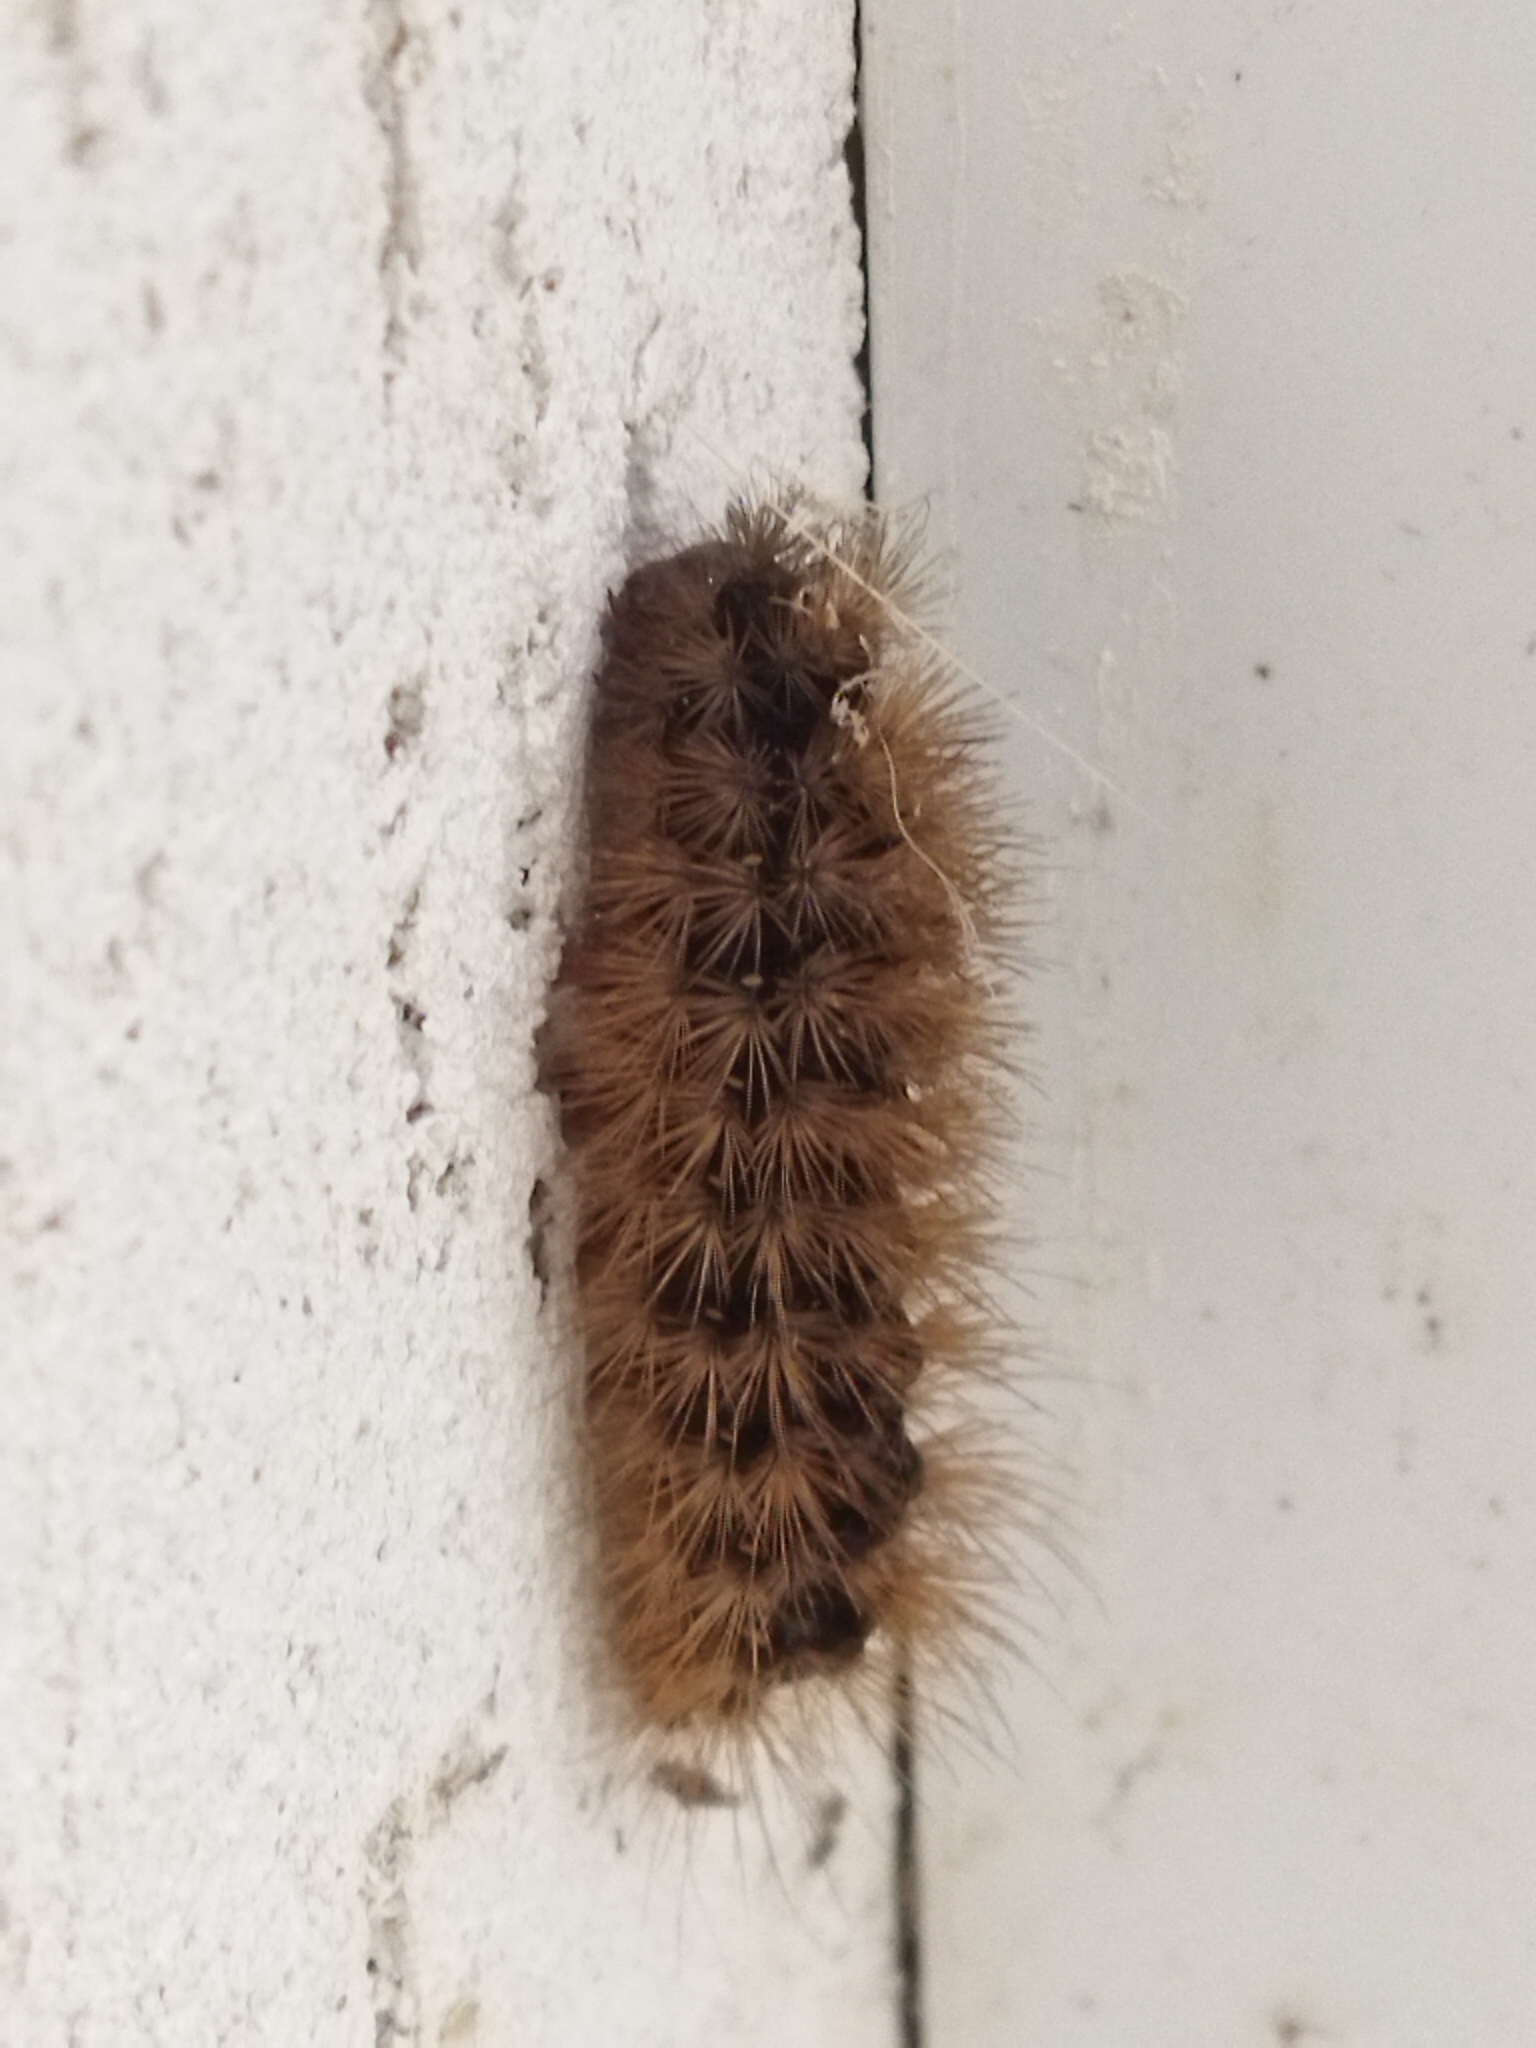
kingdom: Animalia
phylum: Arthropoda
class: Insecta
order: Lepidoptera
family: Erebidae
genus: Epicallia
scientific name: Epicallia villica
